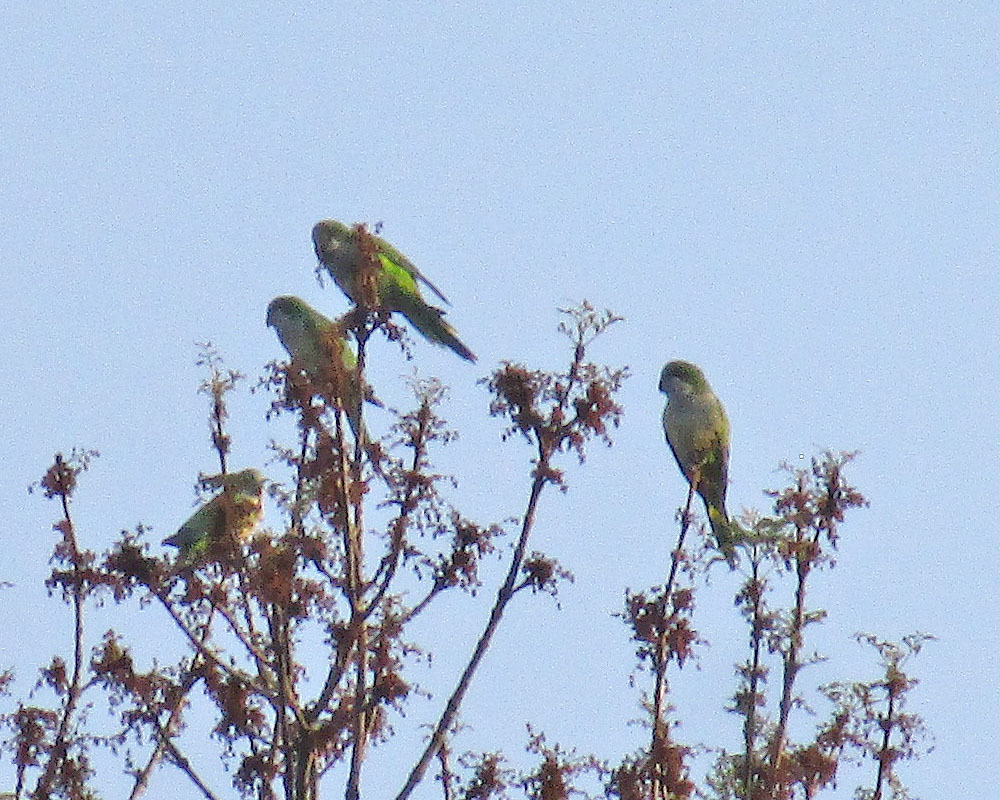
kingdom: Animalia
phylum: Chordata
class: Aves
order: Psittaciformes
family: Psittacidae
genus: Myiopsitta
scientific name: Myiopsitta monachus
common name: Monk parakeet
